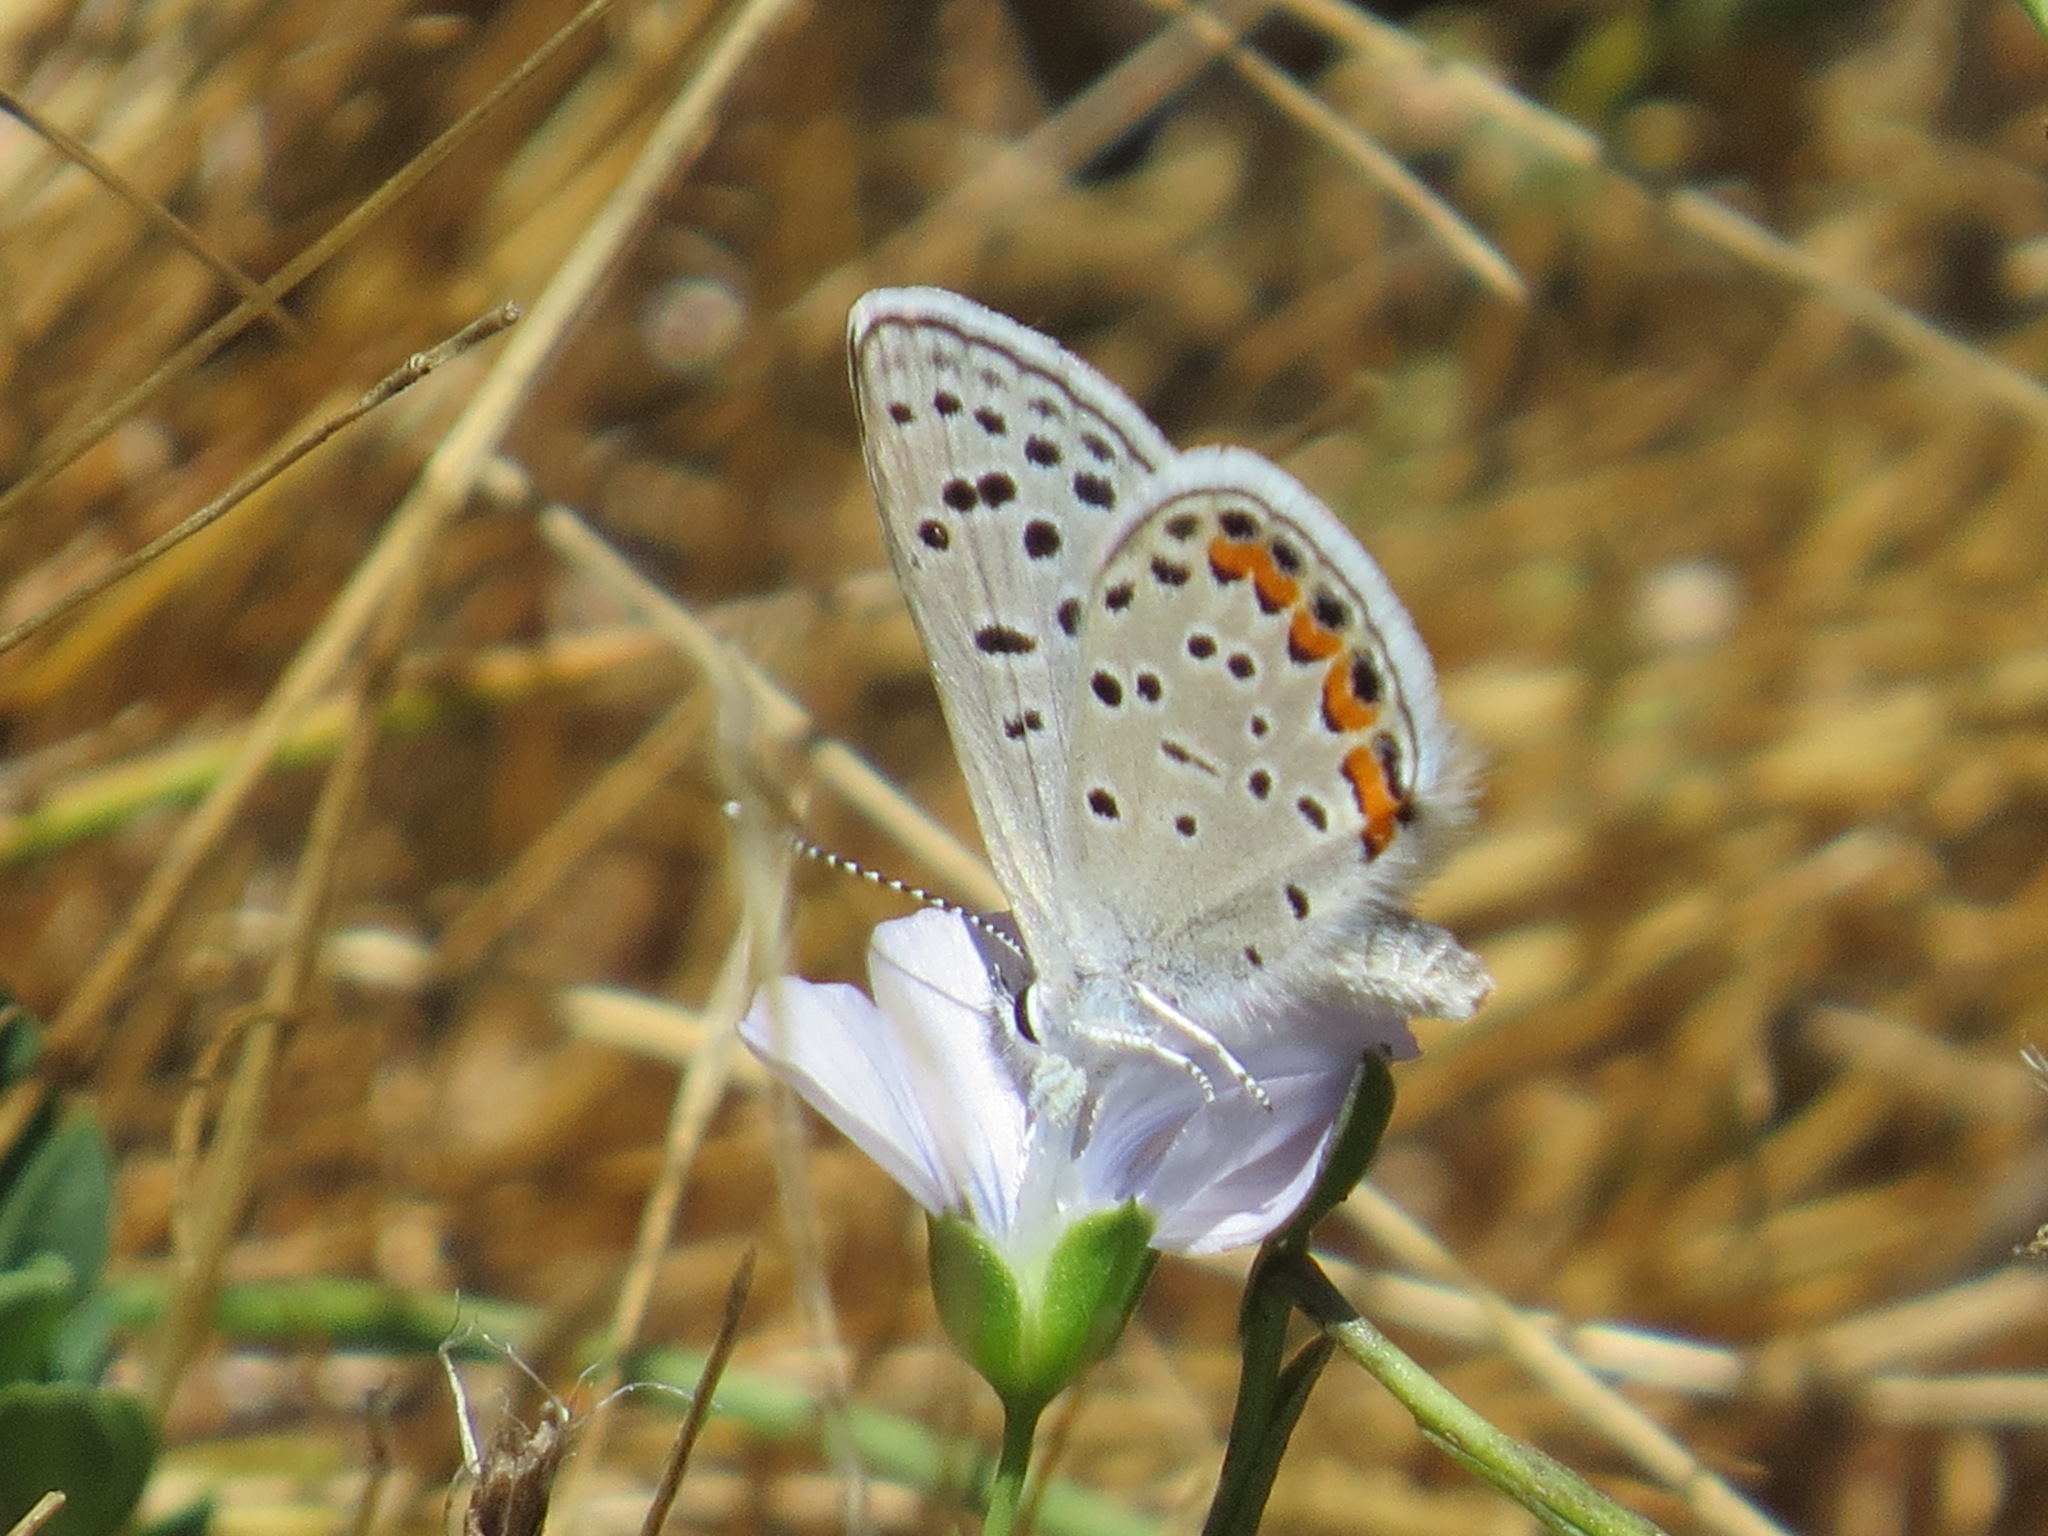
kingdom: Animalia
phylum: Arthropoda
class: Insecta
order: Lepidoptera
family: Lycaenidae
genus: Icaricia
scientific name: Icaricia acmon
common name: Acmon blue
